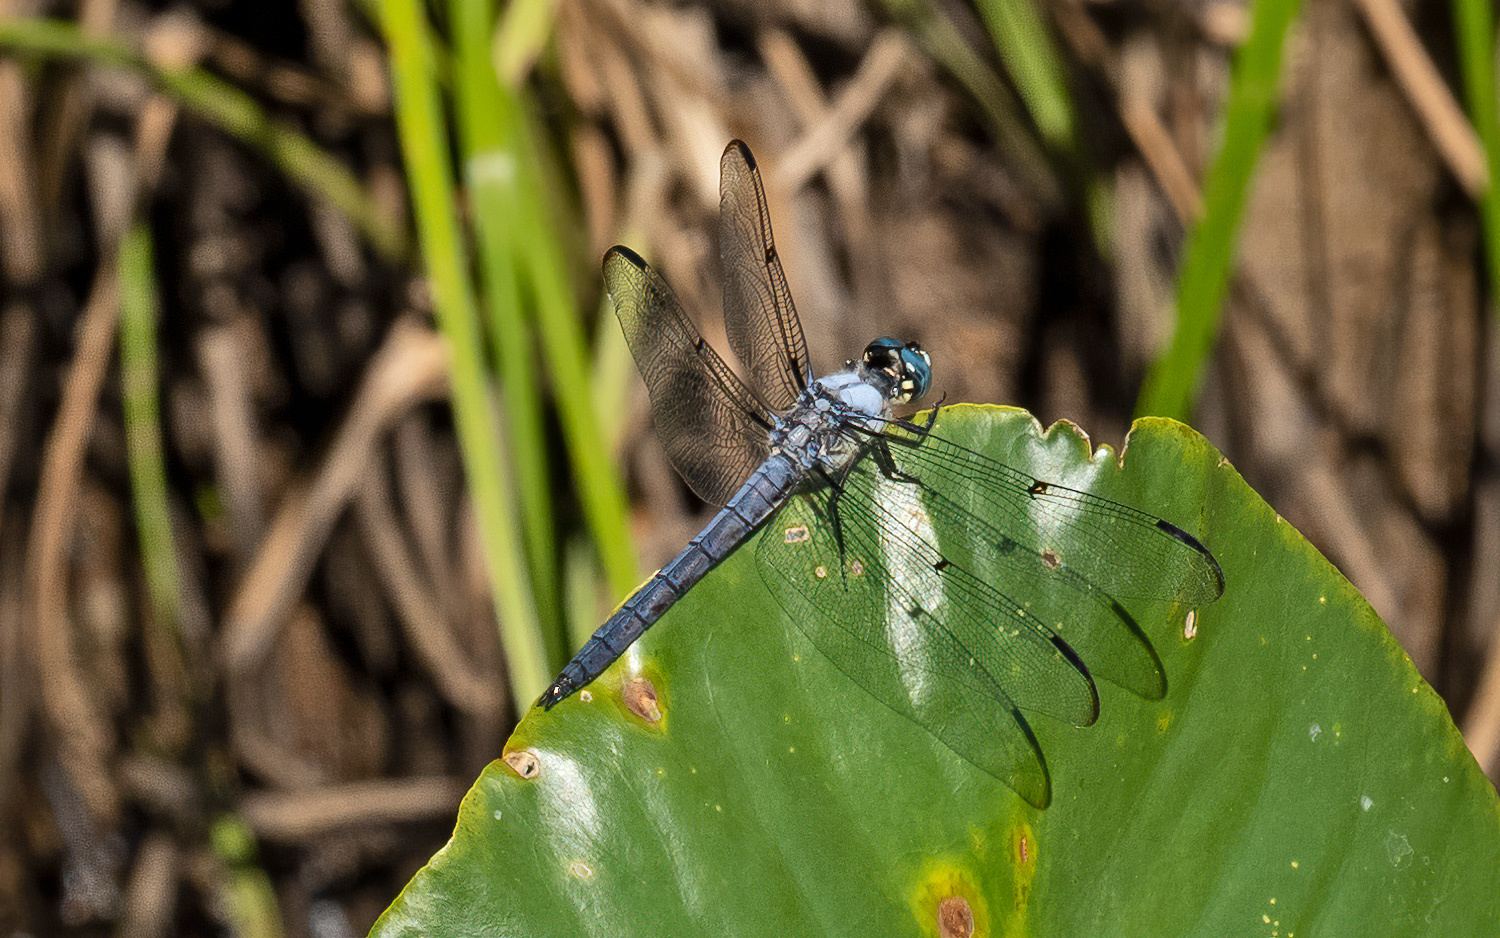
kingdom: Animalia
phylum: Arthropoda
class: Insecta
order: Odonata
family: Libellulidae
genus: Libellula
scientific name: Libellula vibrans
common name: Great blue skimmer
